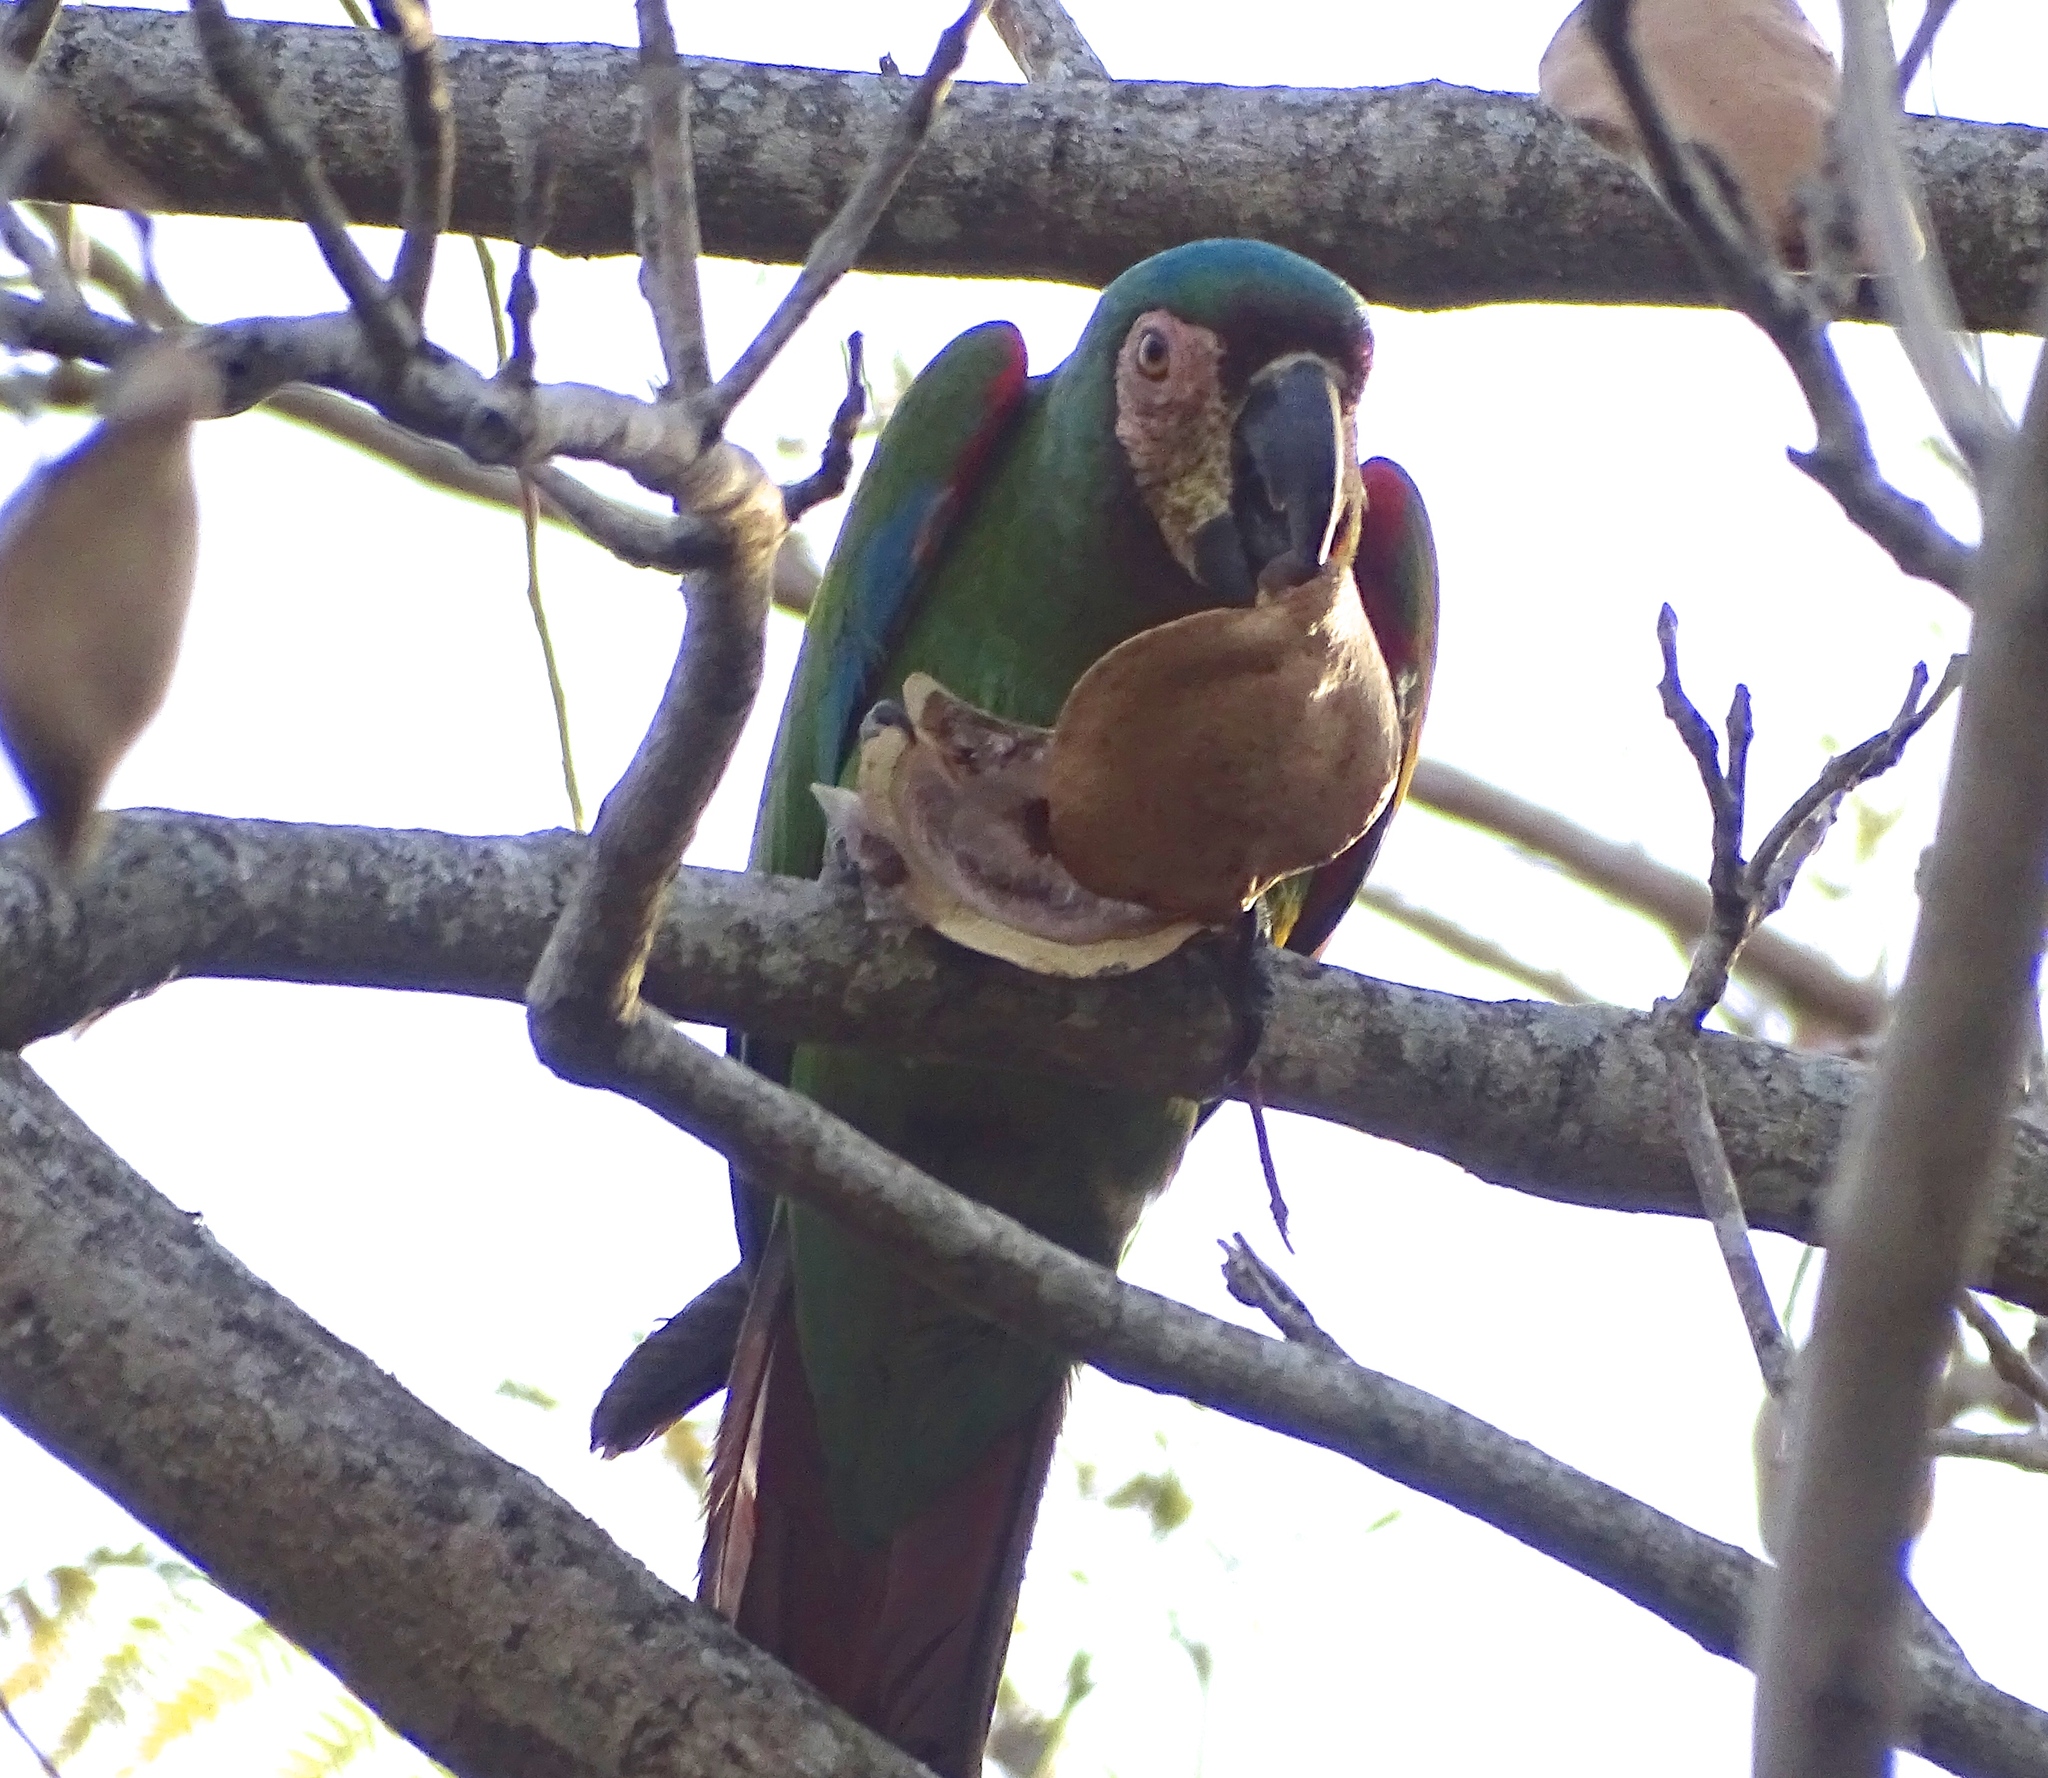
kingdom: Animalia
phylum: Chordata
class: Aves
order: Psittaciformes
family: Psittacidae
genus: Ara
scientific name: Ara severus
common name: Chestnut-fronted macaw
